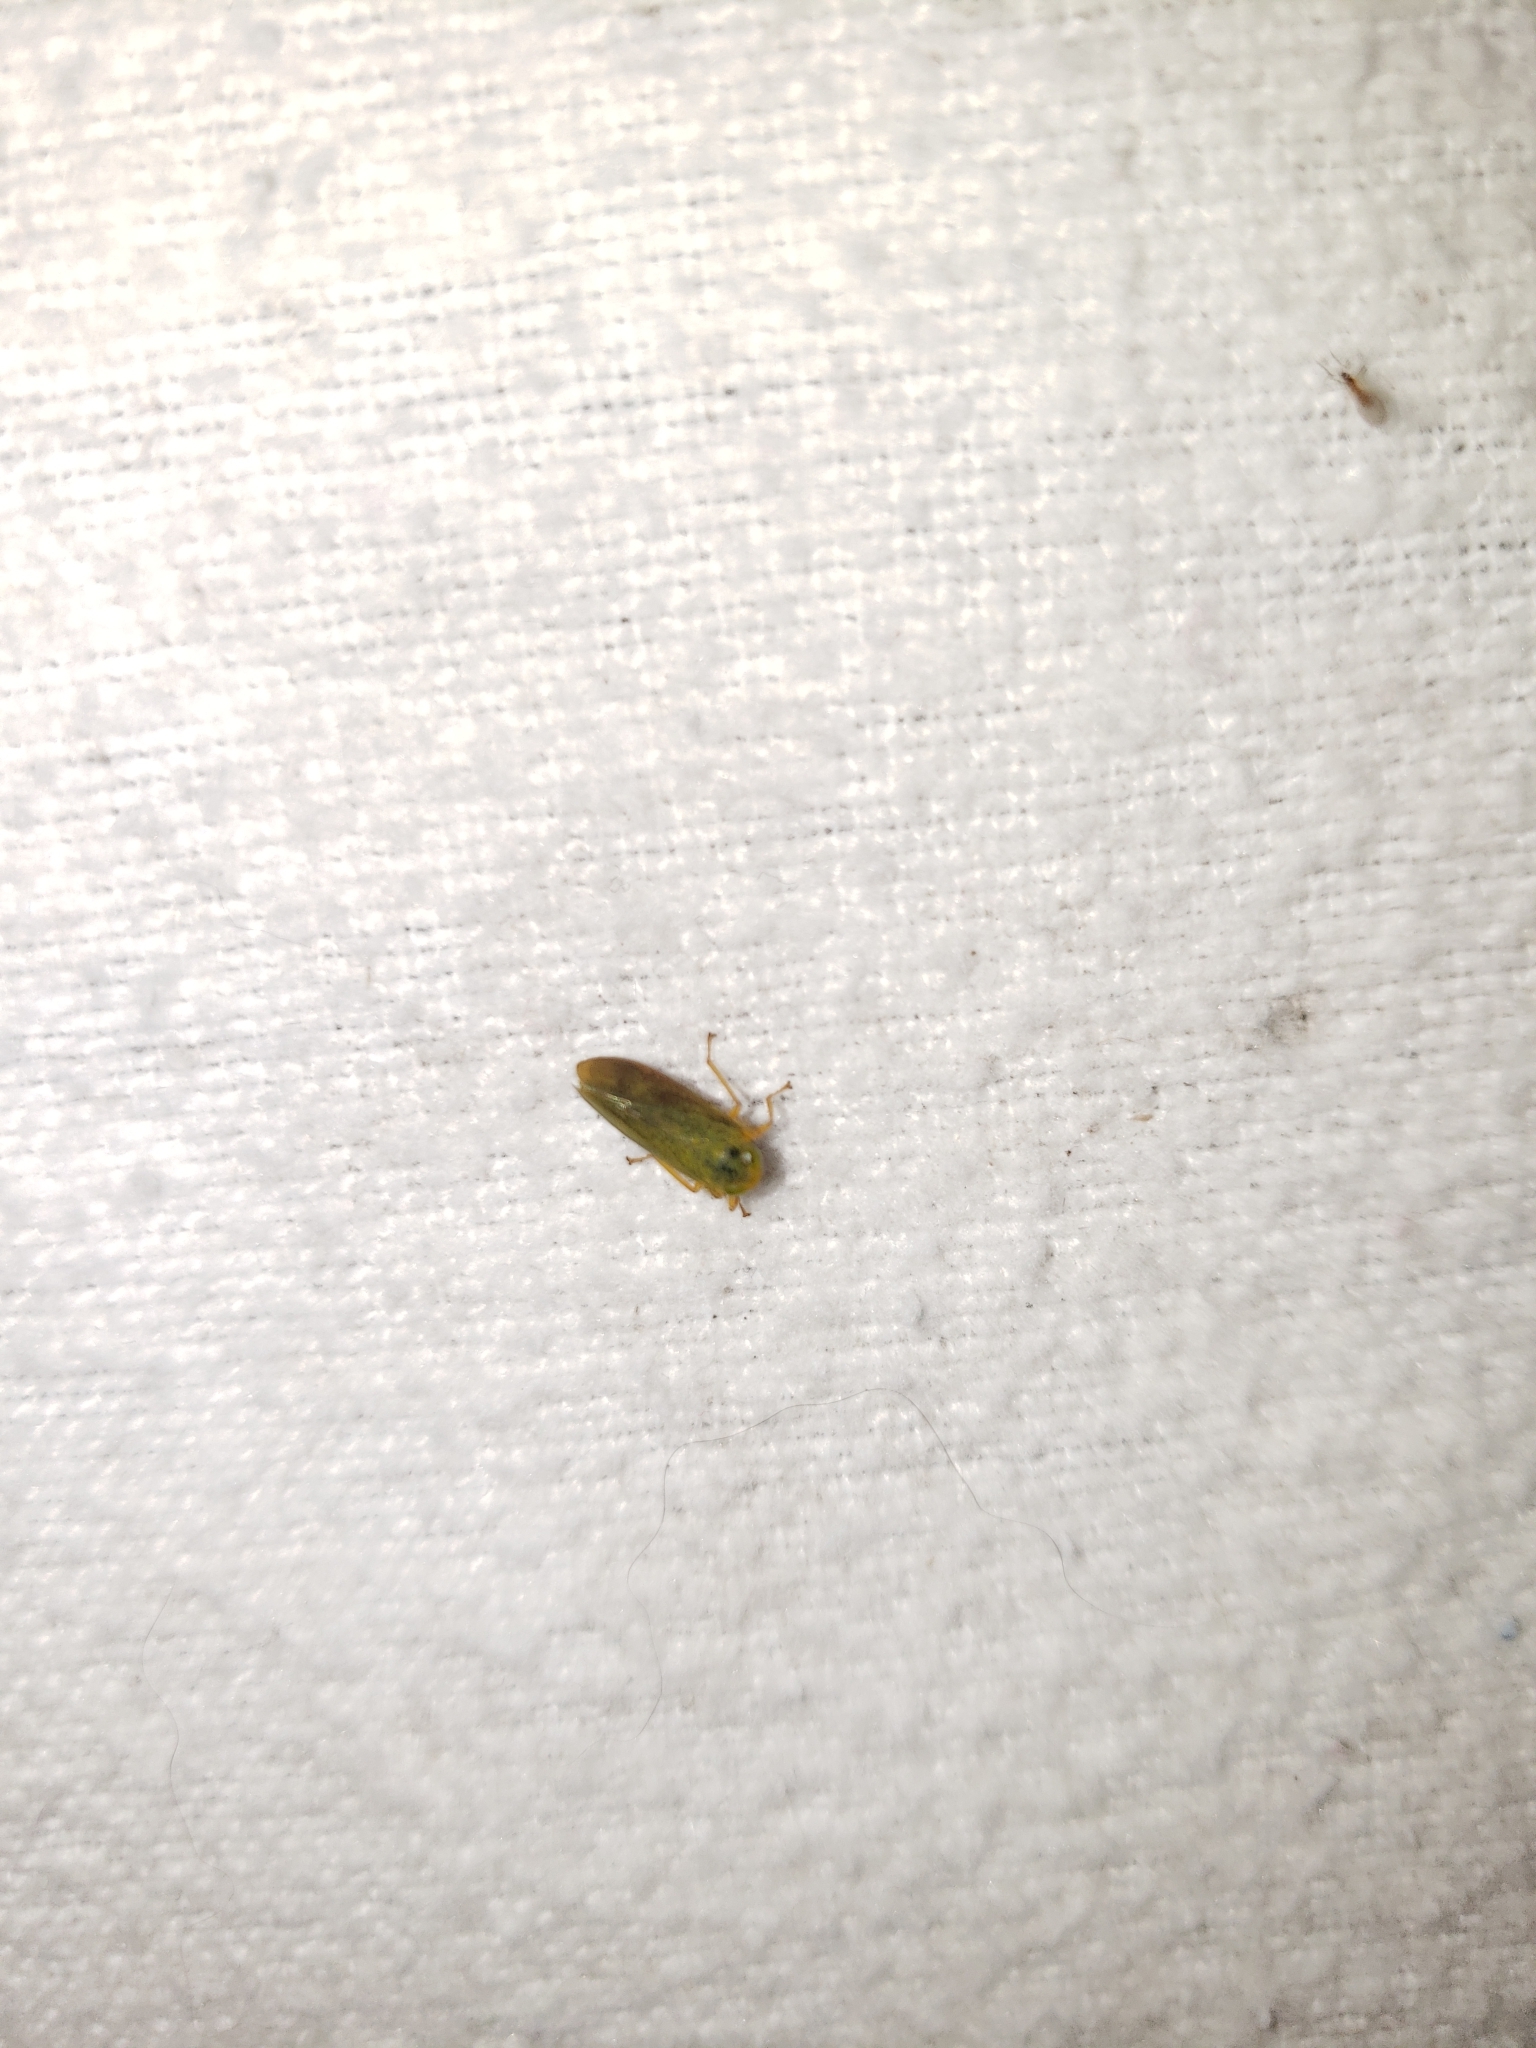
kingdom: Animalia
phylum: Arthropoda
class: Insecta
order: Hemiptera
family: Cicadellidae
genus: Jikradia
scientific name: Jikradia olitoria
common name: Coppery leafhopper
